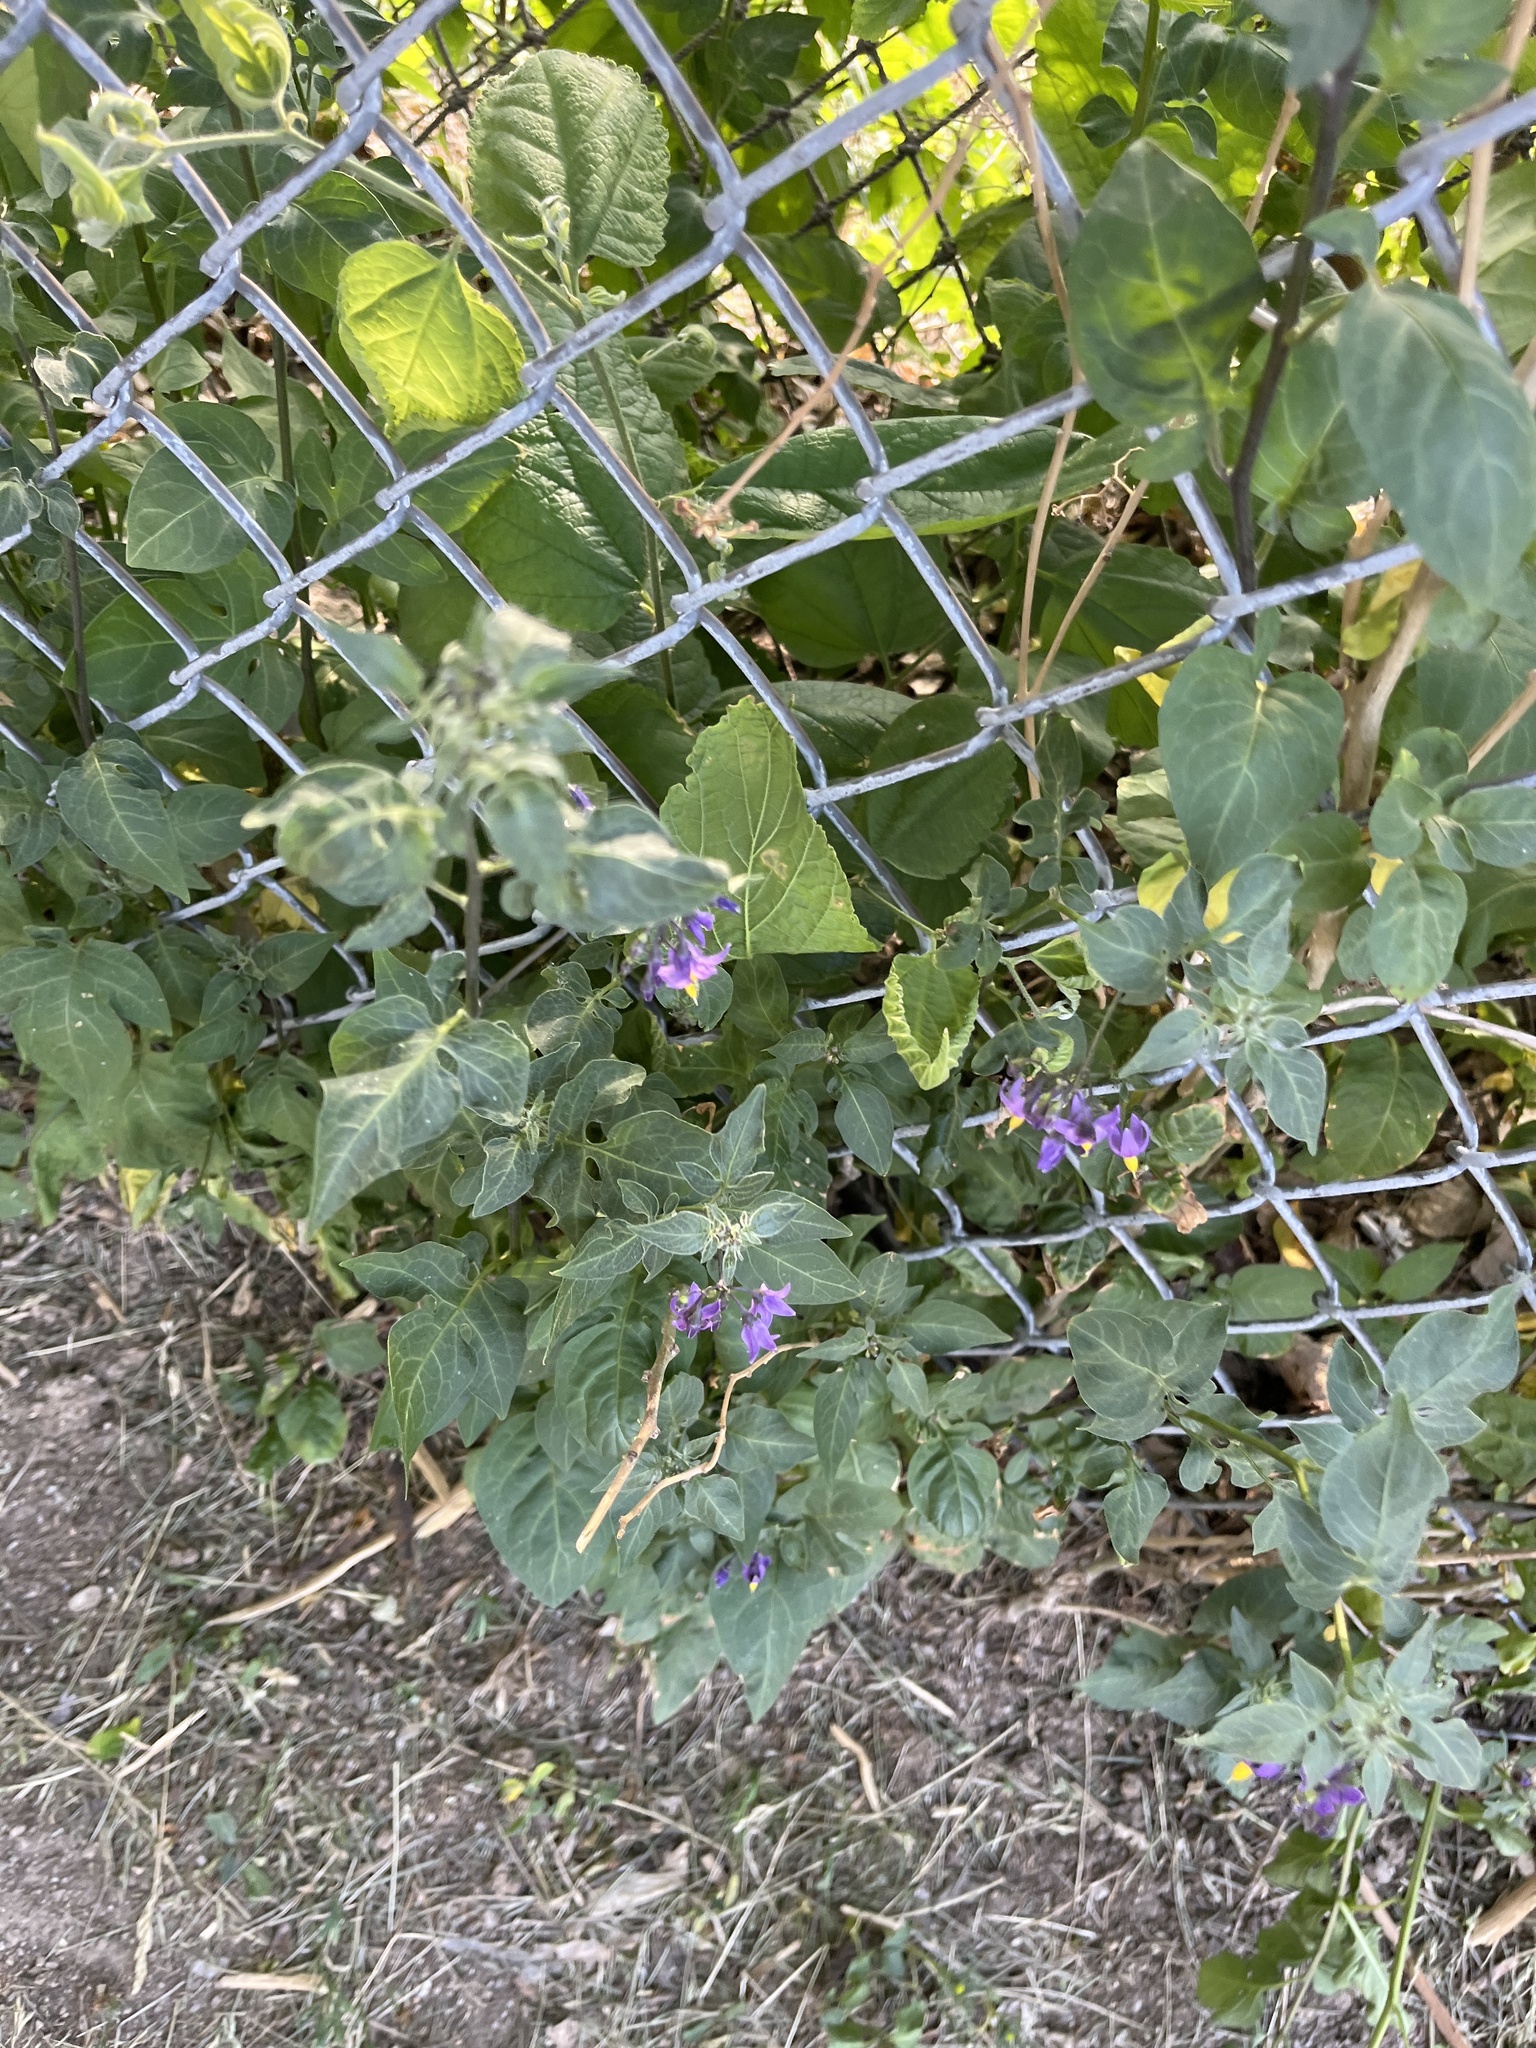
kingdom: Plantae
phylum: Tracheophyta
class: Magnoliopsida
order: Solanales
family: Solanaceae
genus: Solanum
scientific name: Solanum dulcamara
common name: Climbing nightshade
